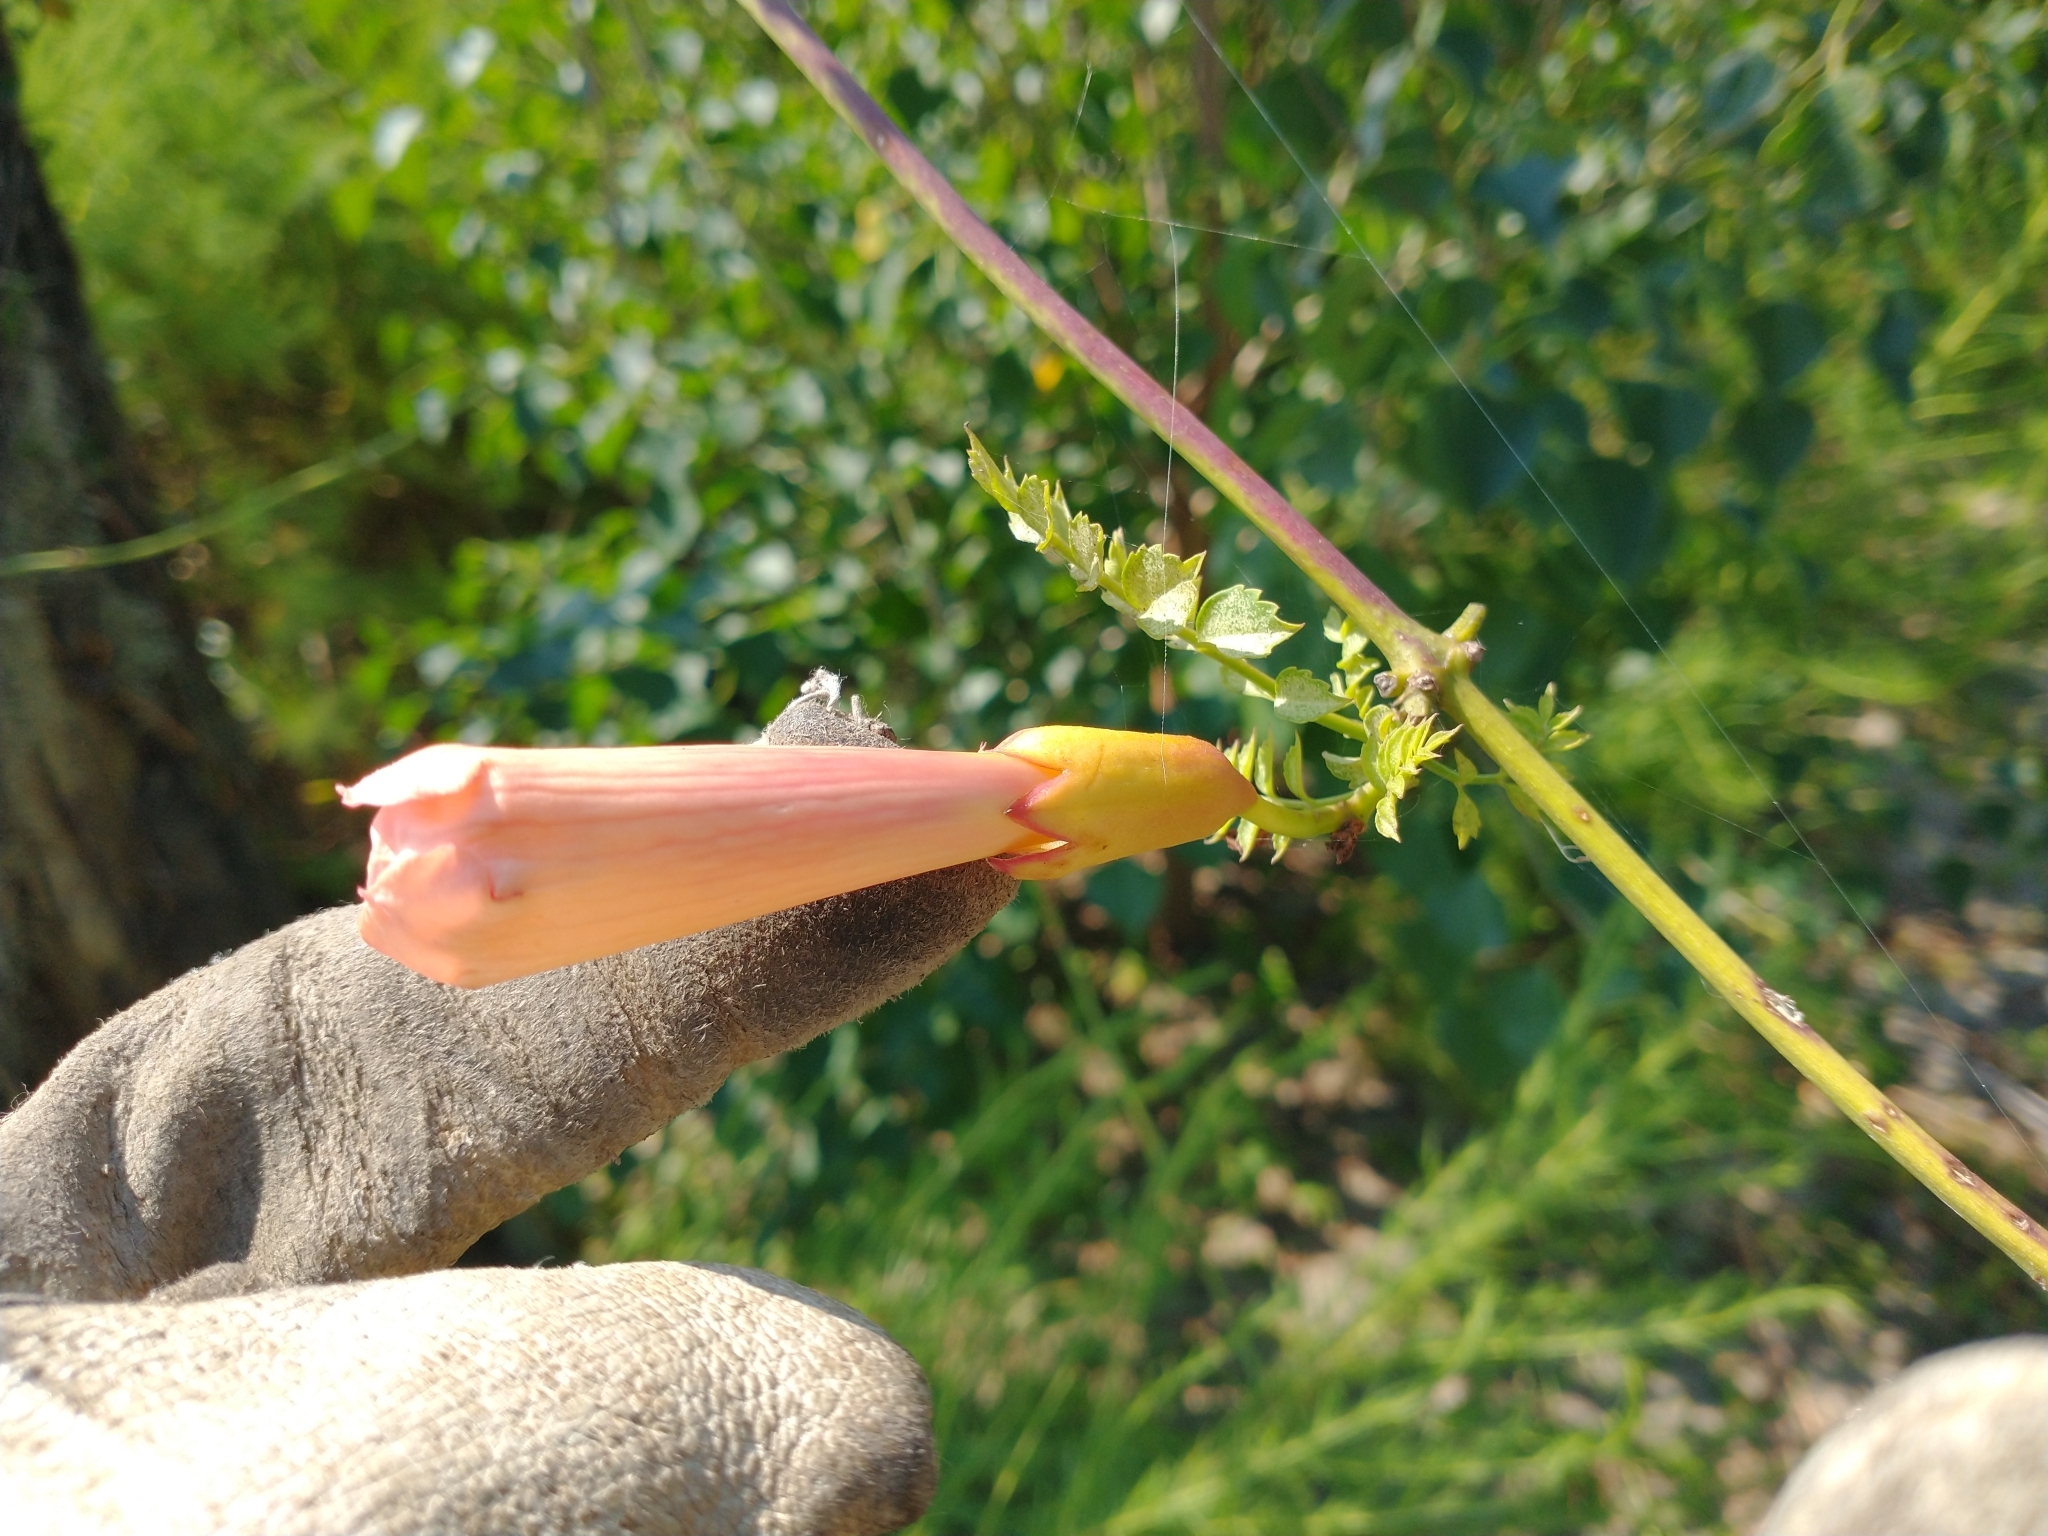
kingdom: Plantae
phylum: Tracheophyta
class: Magnoliopsida
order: Lamiales
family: Bignoniaceae
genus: Campsis
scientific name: Campsis radicans
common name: Trumpet-creeper
